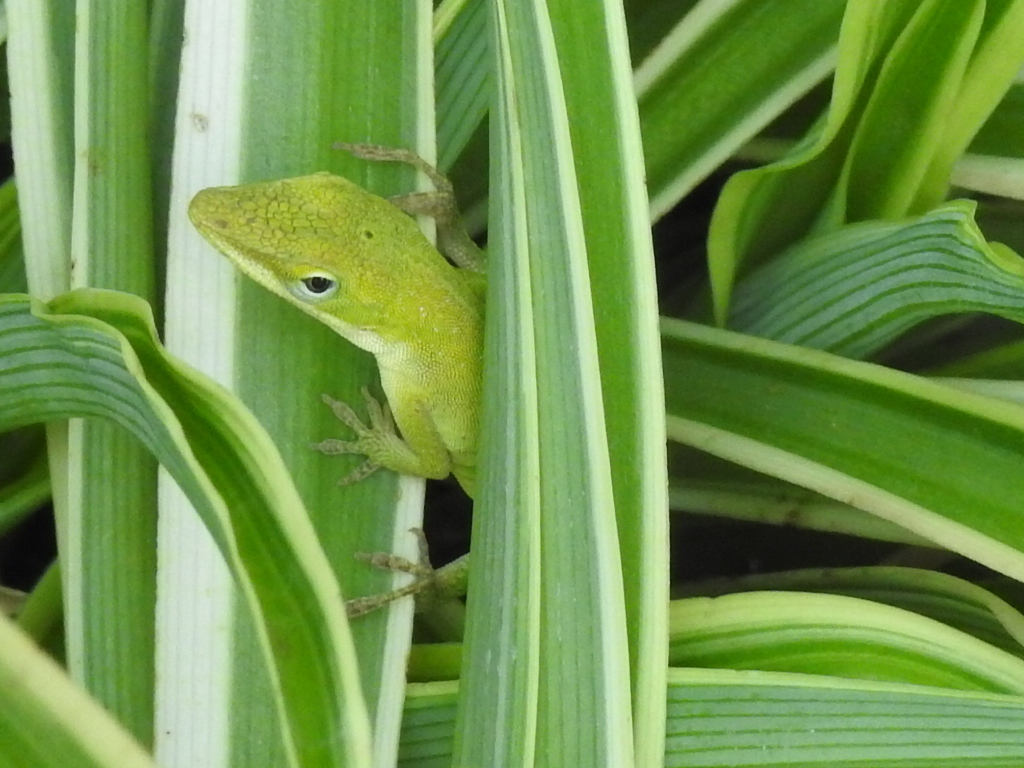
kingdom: Animalia
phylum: Chordata
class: Squamata
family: Dactyloidae
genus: Anolis
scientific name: Anolis carolinensis
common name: Green anole
